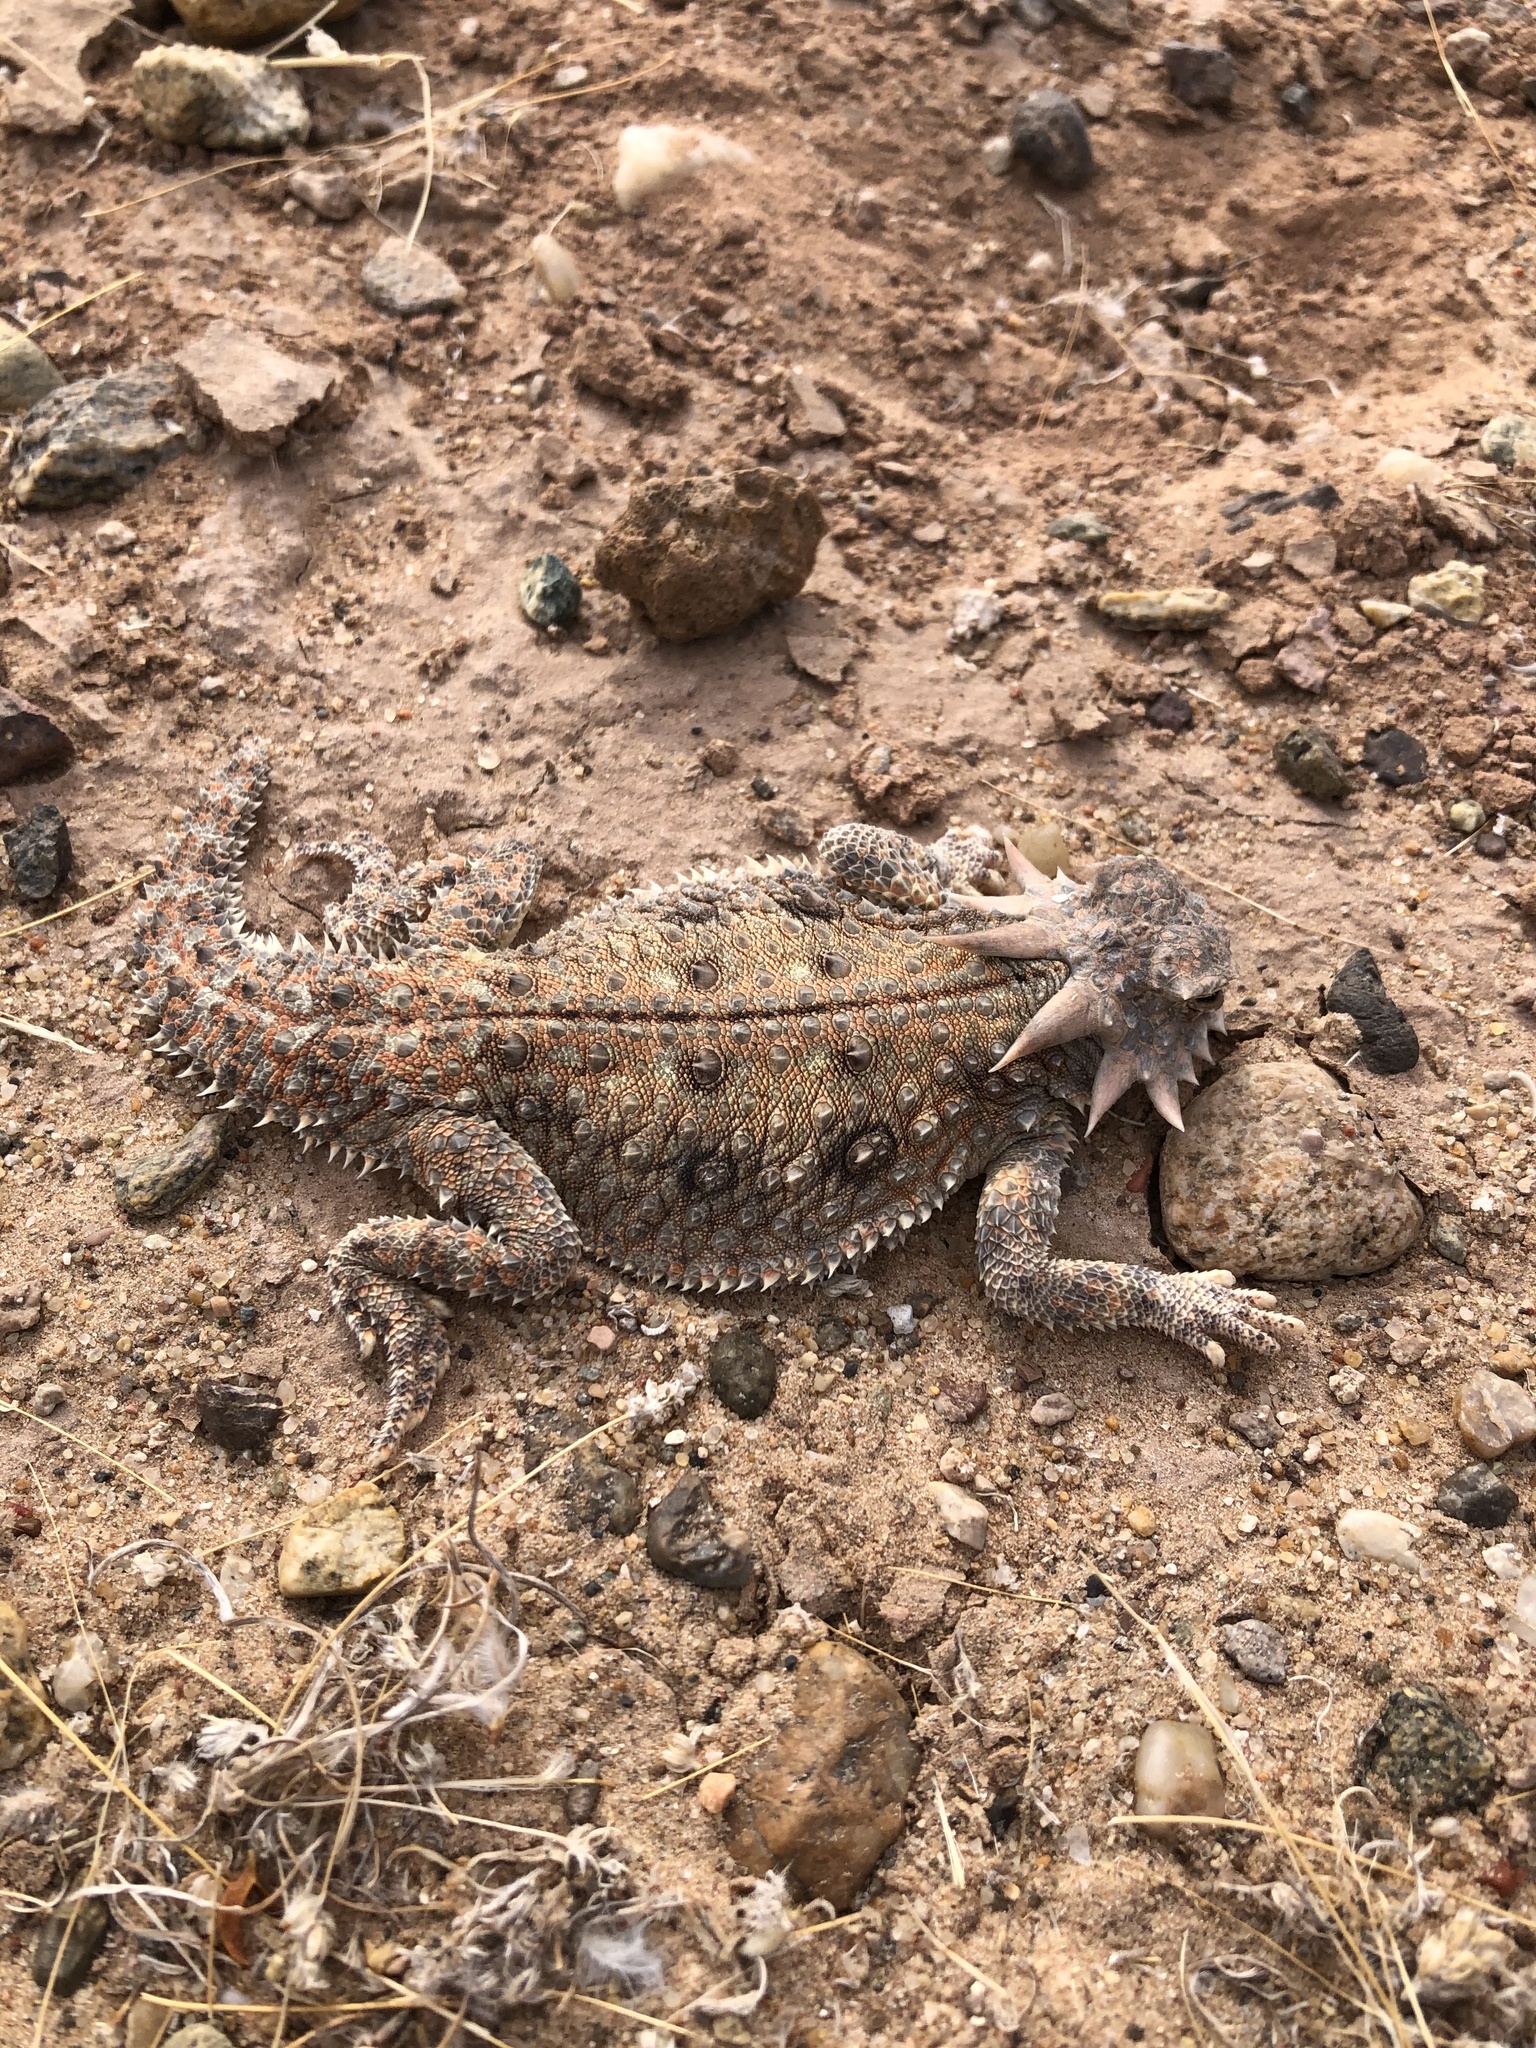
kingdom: Animalia
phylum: Chordata
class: Squamata
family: Phrynosomatidae
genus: Phrynosoma
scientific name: Phrynosoma mcallii
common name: Flat-tailed horned lizard
